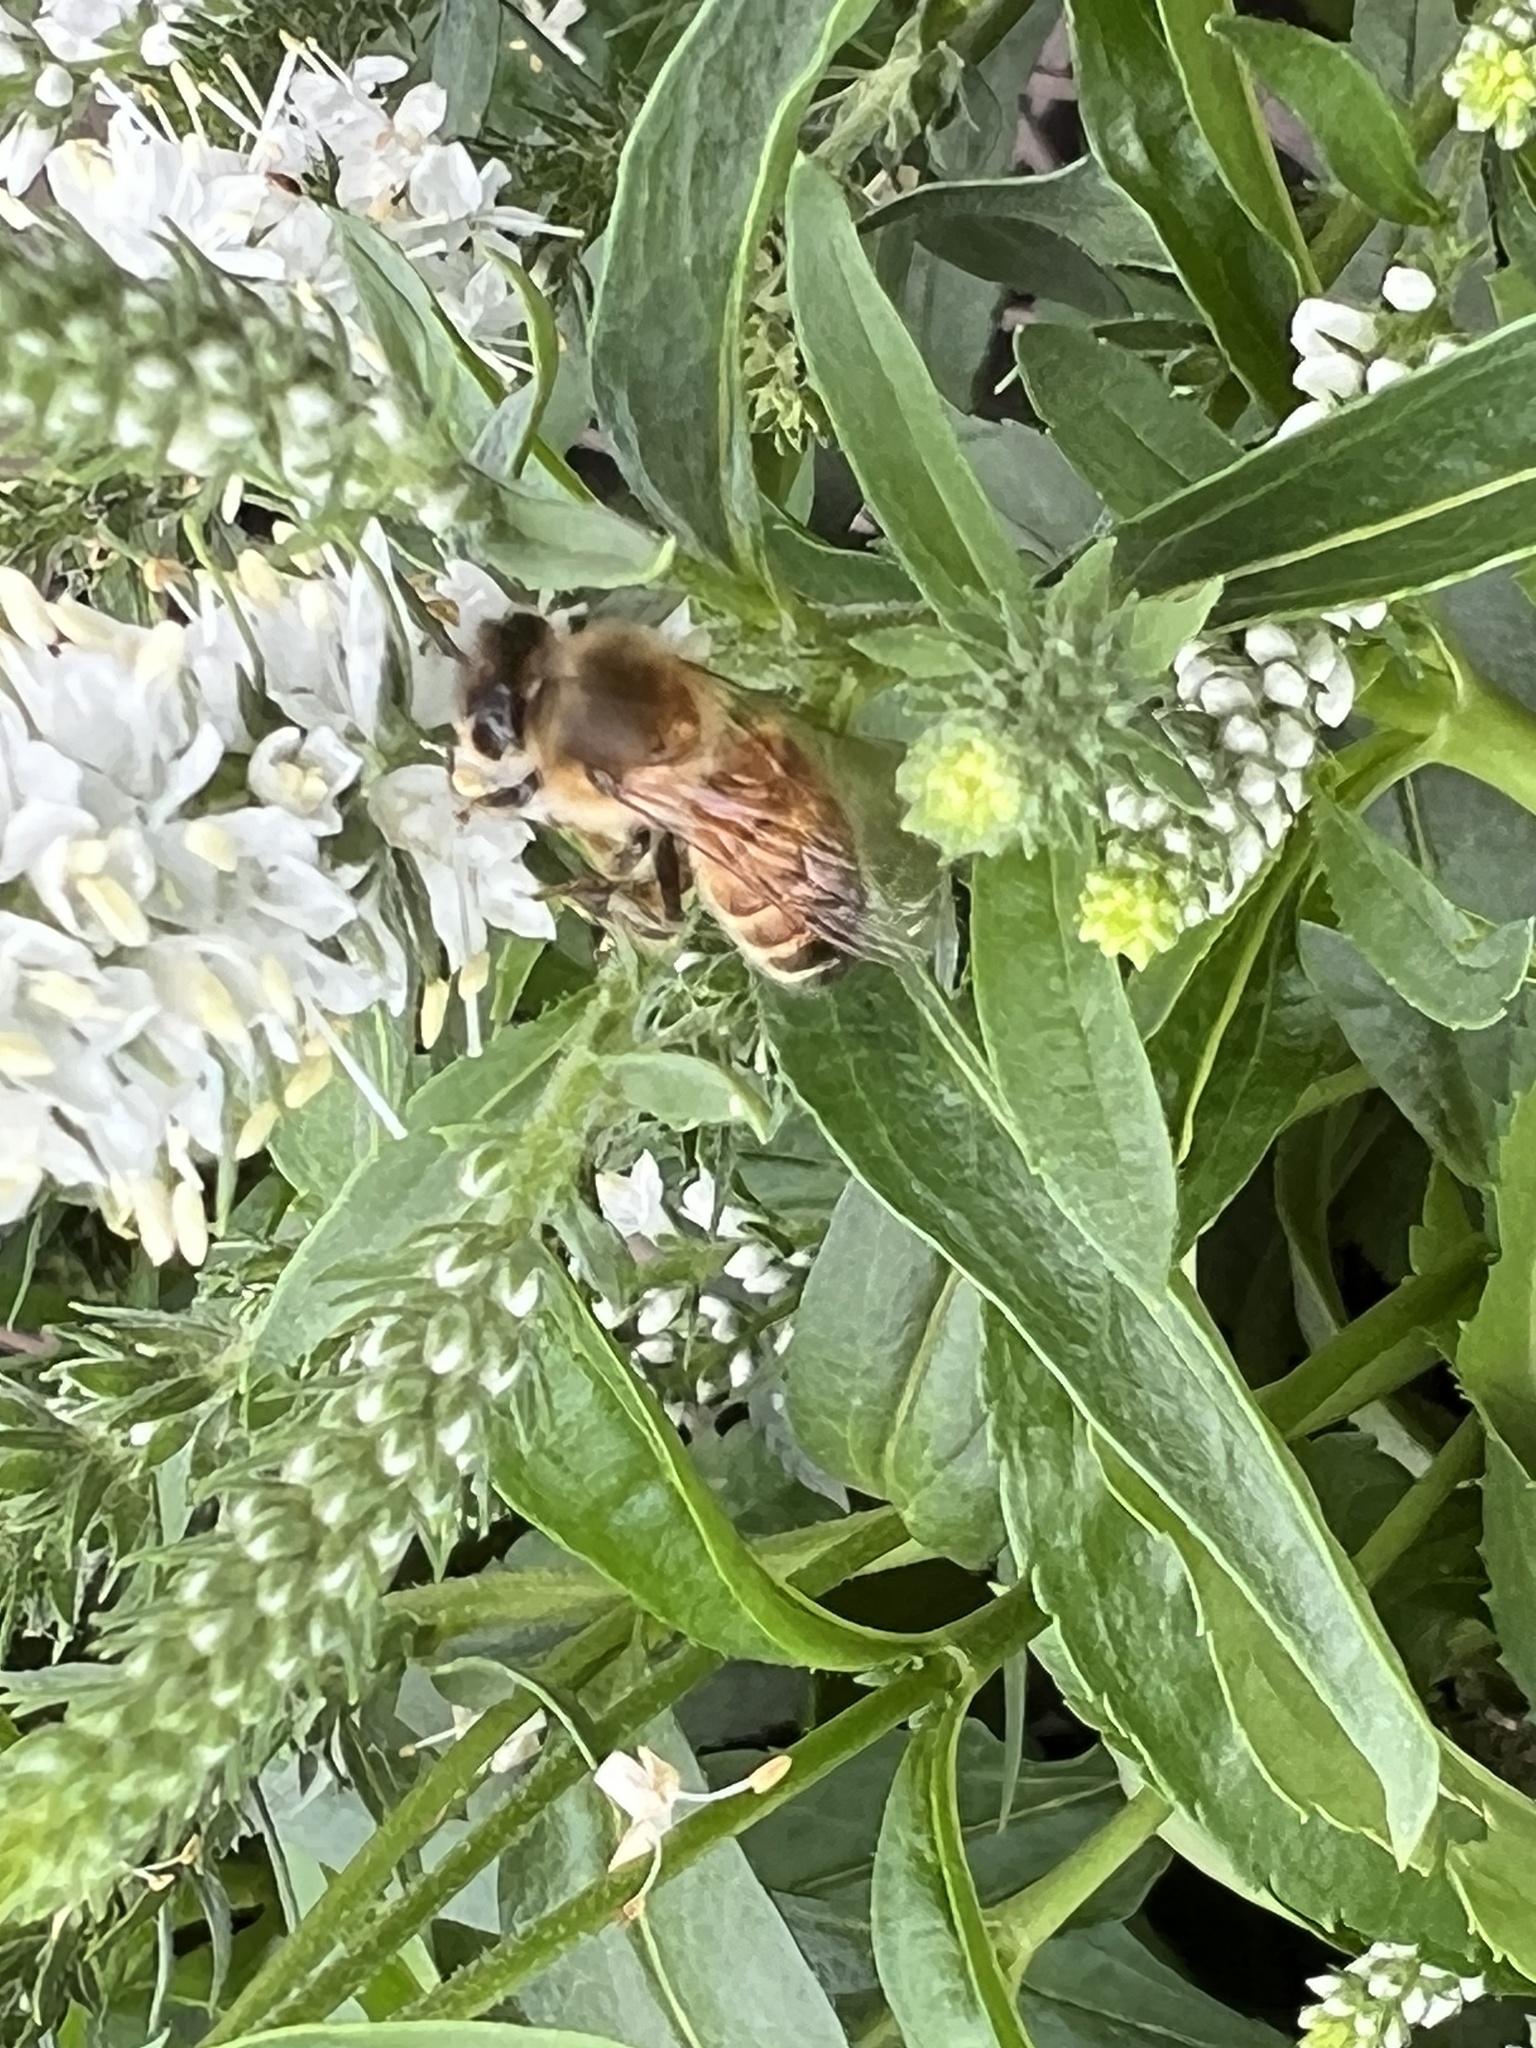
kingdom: Animalia
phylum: Arthropoda
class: Insecta
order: Hymenoptera
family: Apidae
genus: Apis
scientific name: Apis mellifera
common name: Honey bee
